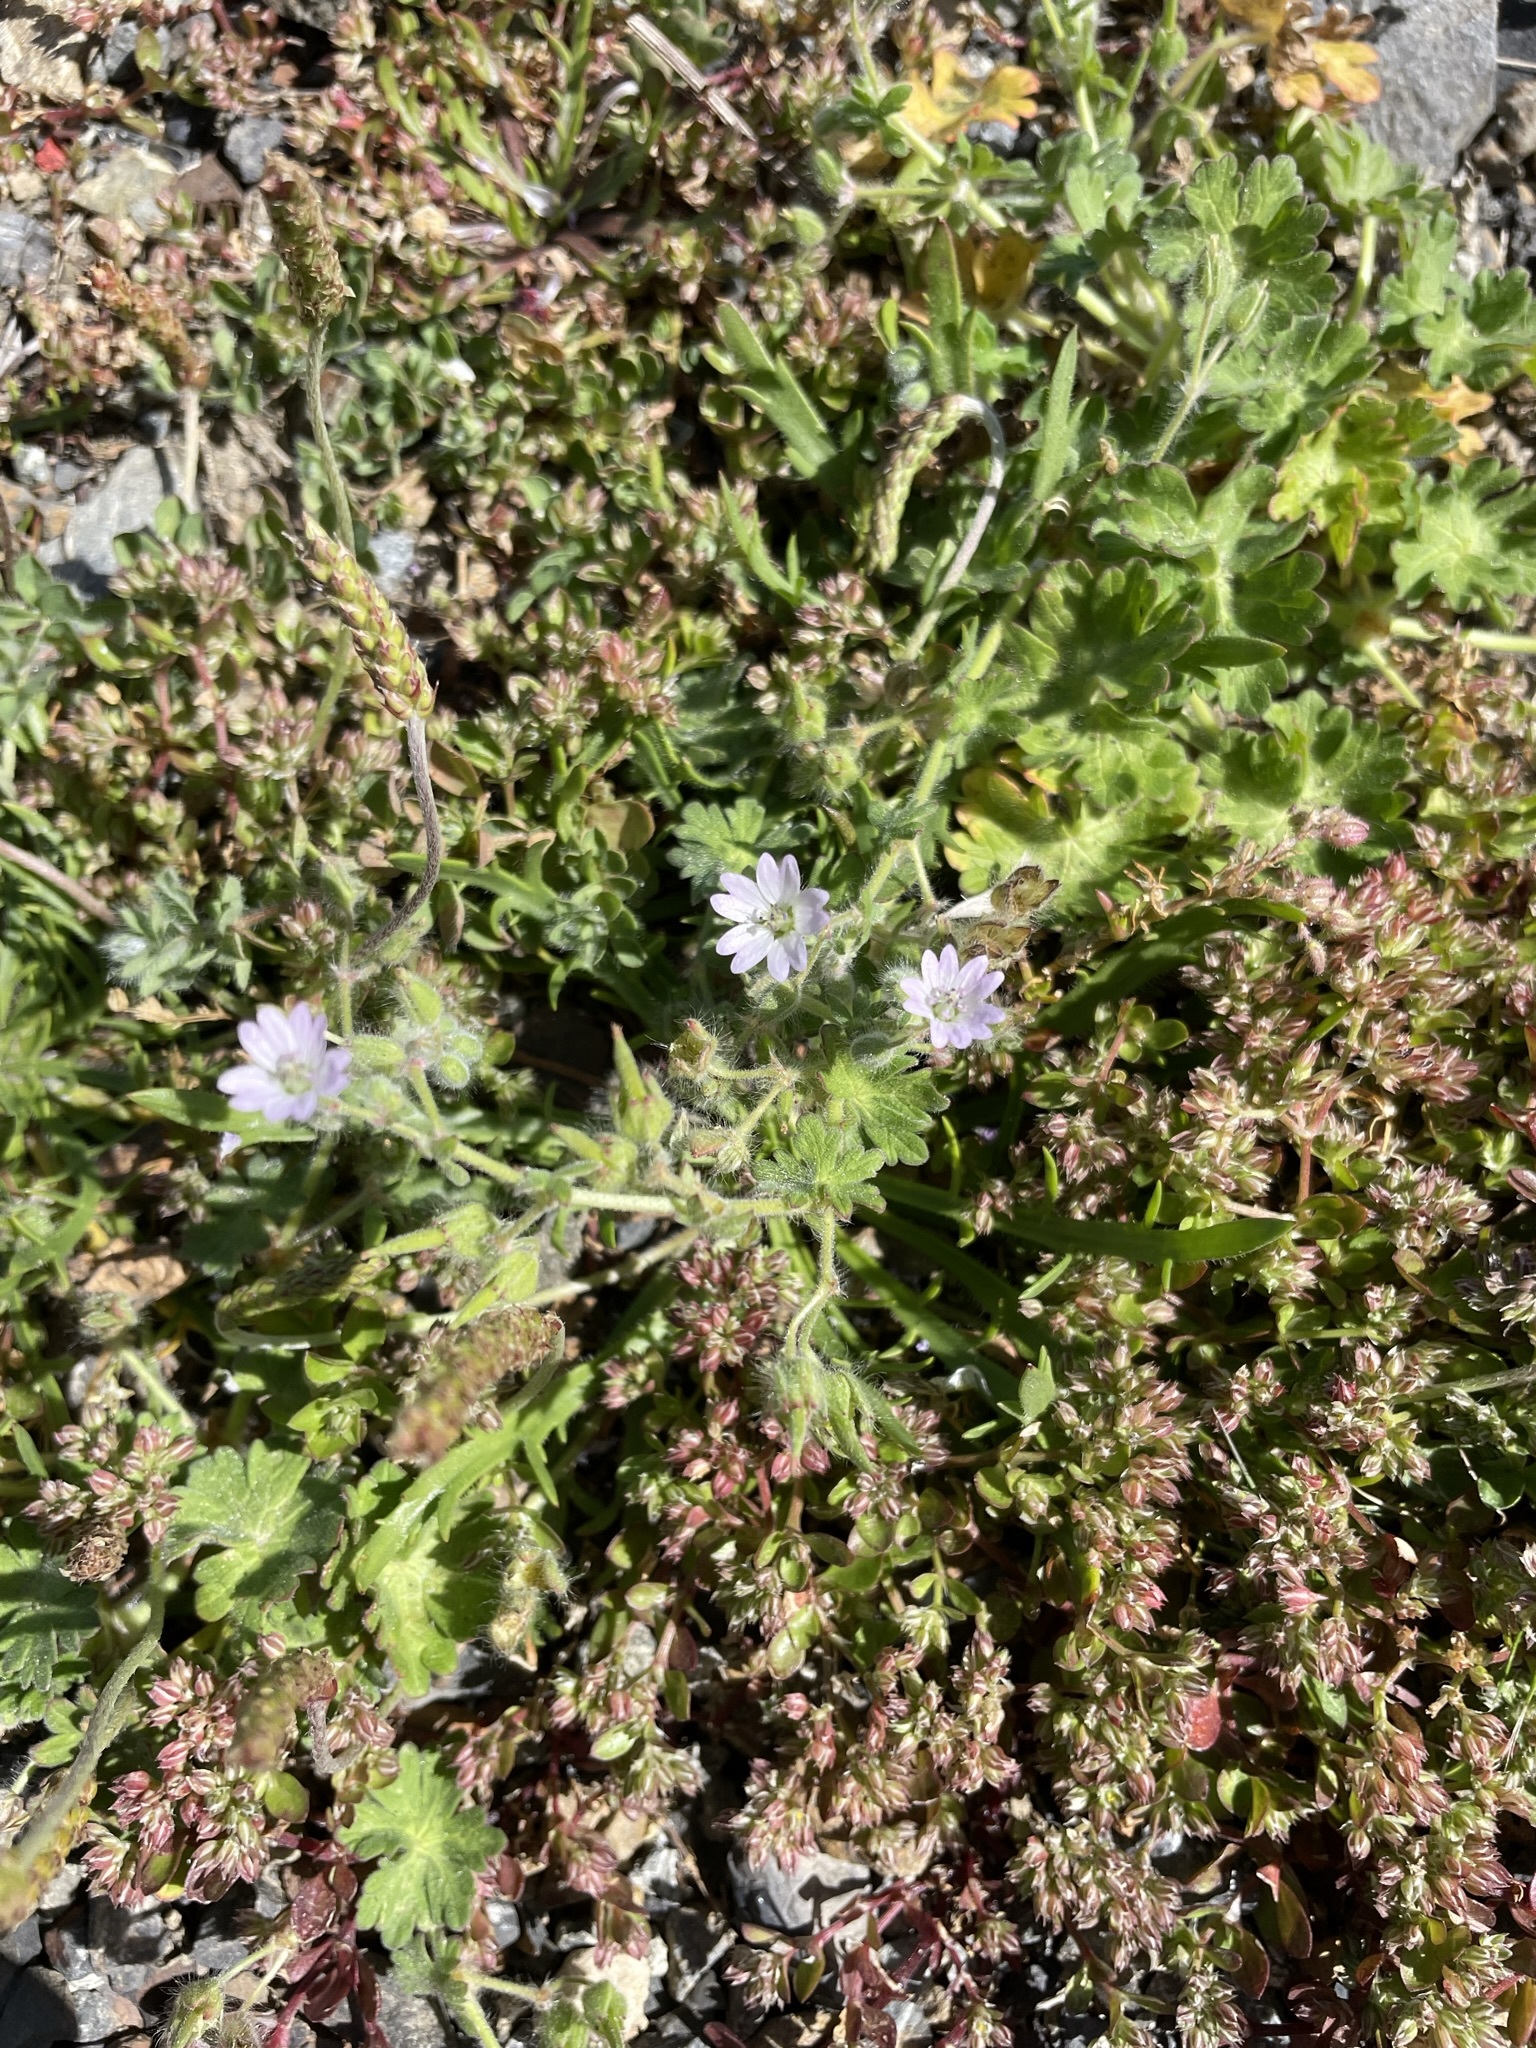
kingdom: Plantae
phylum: Tracheophyta
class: Magnoliopsida
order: Geraniales
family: Geraniaceae
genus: Geranium
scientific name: Geranium molle
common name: Dove's-foot crane's-bill
